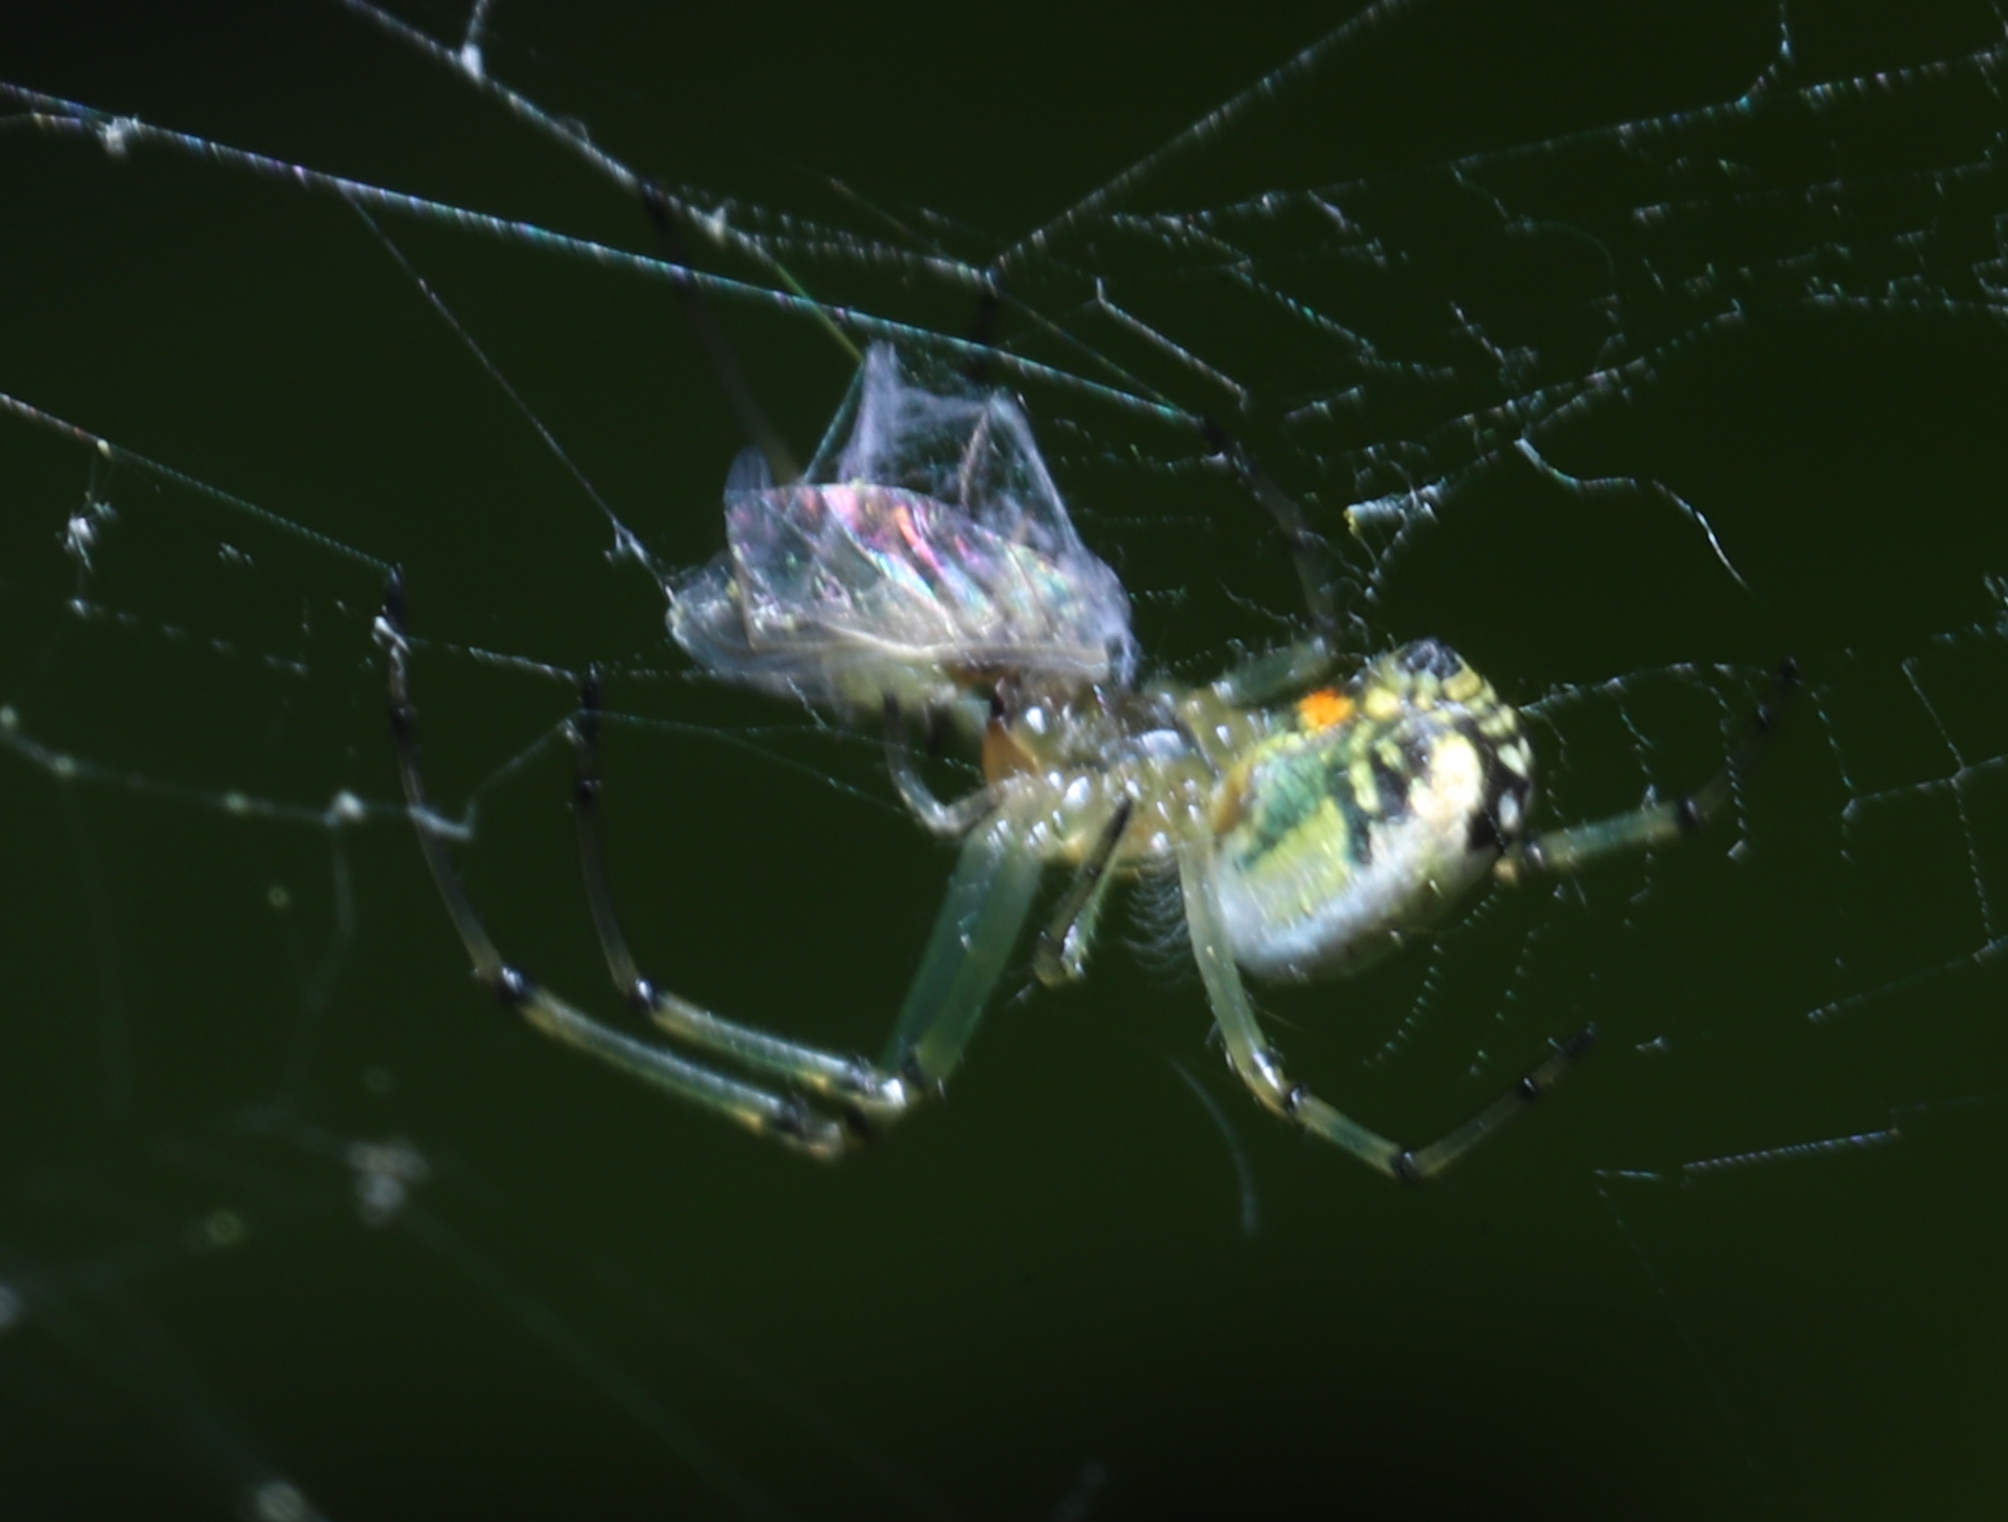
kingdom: Animalia
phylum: Arthropoda
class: Arachnida
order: Araneae
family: Tetragnathidae
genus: Leucauge
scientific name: Leucauge venusta
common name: Longjawed orb weavers
